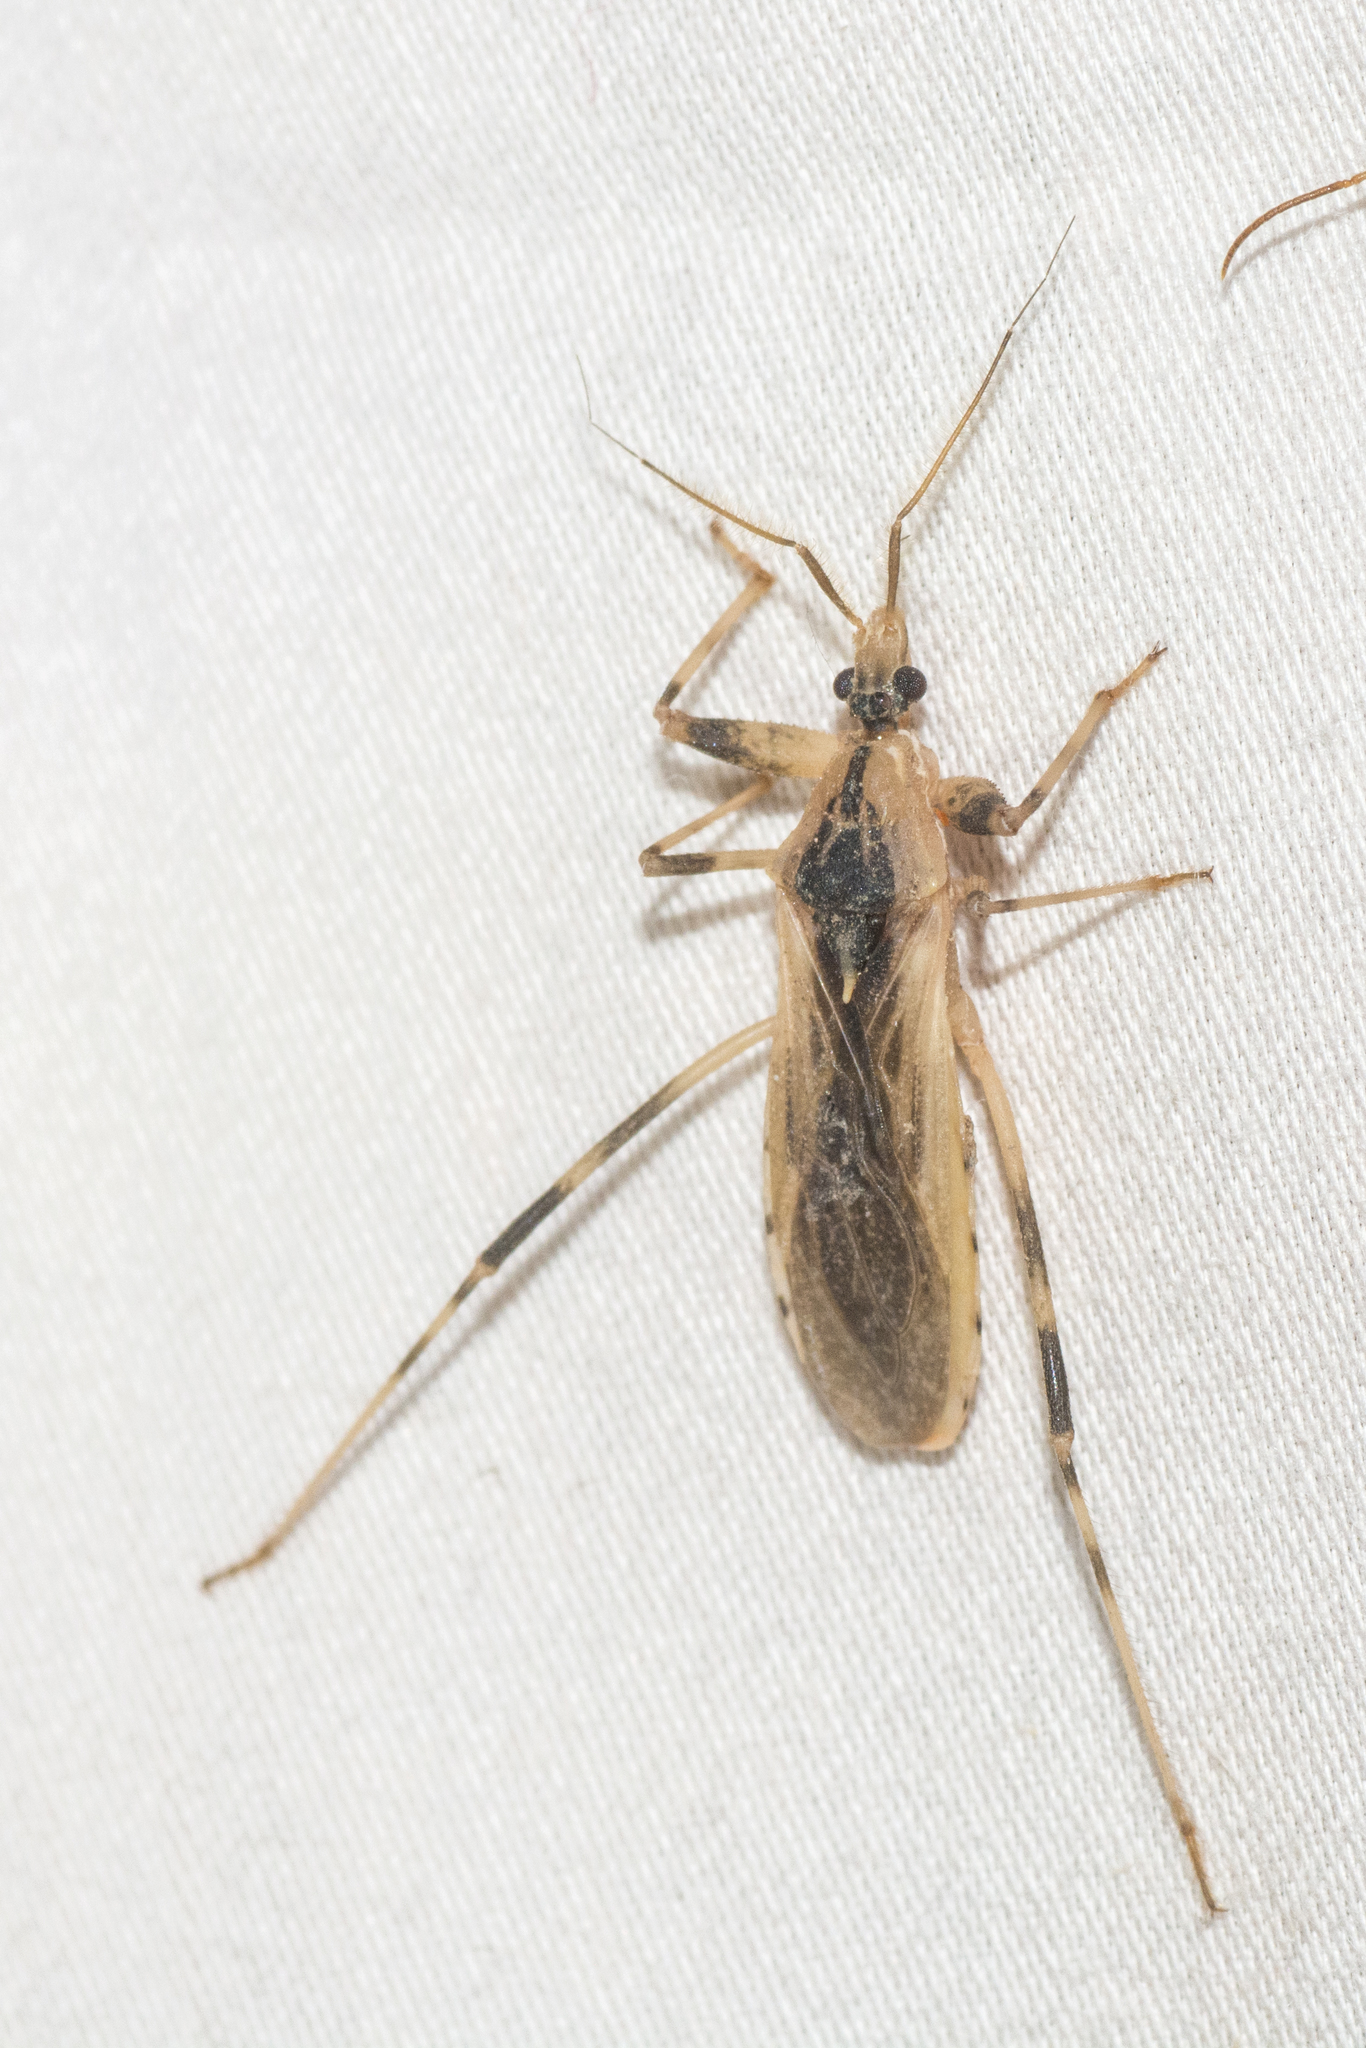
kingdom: Animalia
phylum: Arthropoda
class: Insecta
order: Hemiptera
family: Reduviidae
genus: Oncocephalus
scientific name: Oncocephalus nubilus
